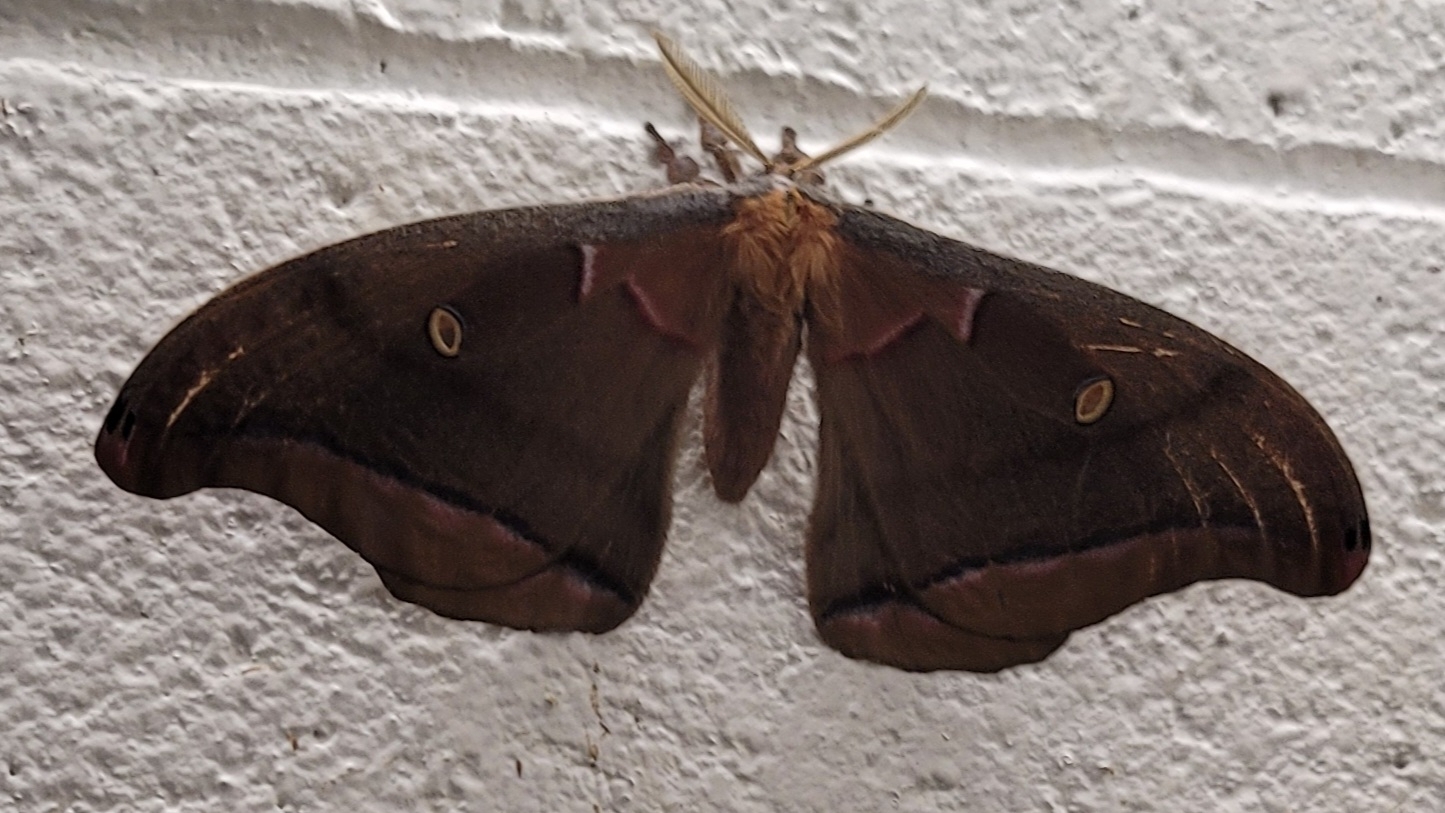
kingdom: Animalia
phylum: Arthropoda
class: Insecta
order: Lepidoptera
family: Saturniidae
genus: Antheraea
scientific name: Antheraea polyphemus
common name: Polyphemus moth
